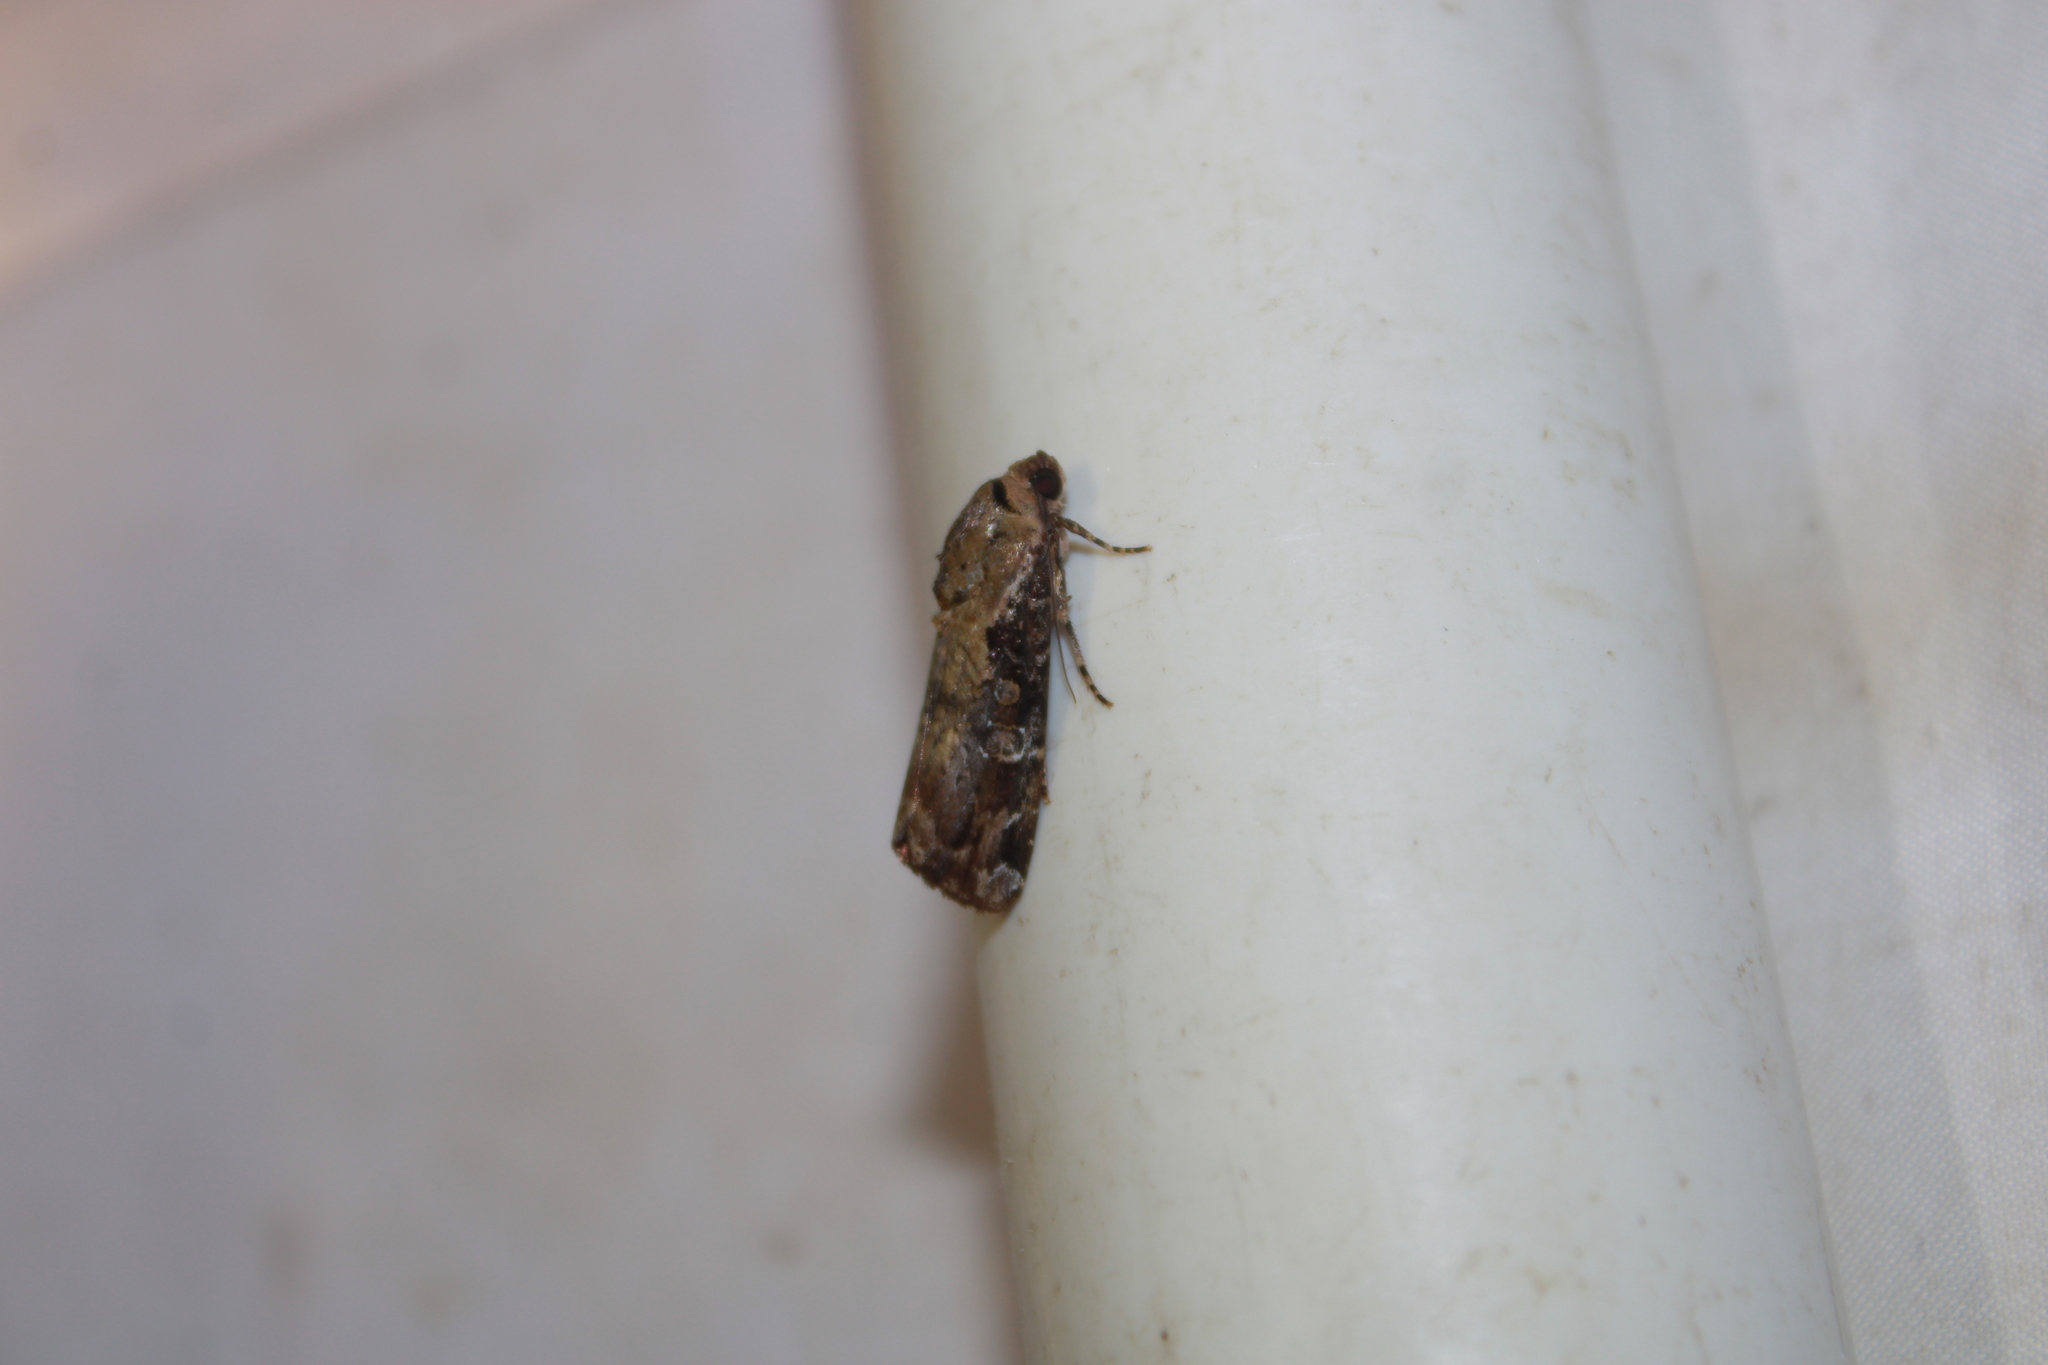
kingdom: Animalia
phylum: Arthropoda
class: Insecta
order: Lepidoptera
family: Noctuidae
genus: Magusa
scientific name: Magusa orbifera
